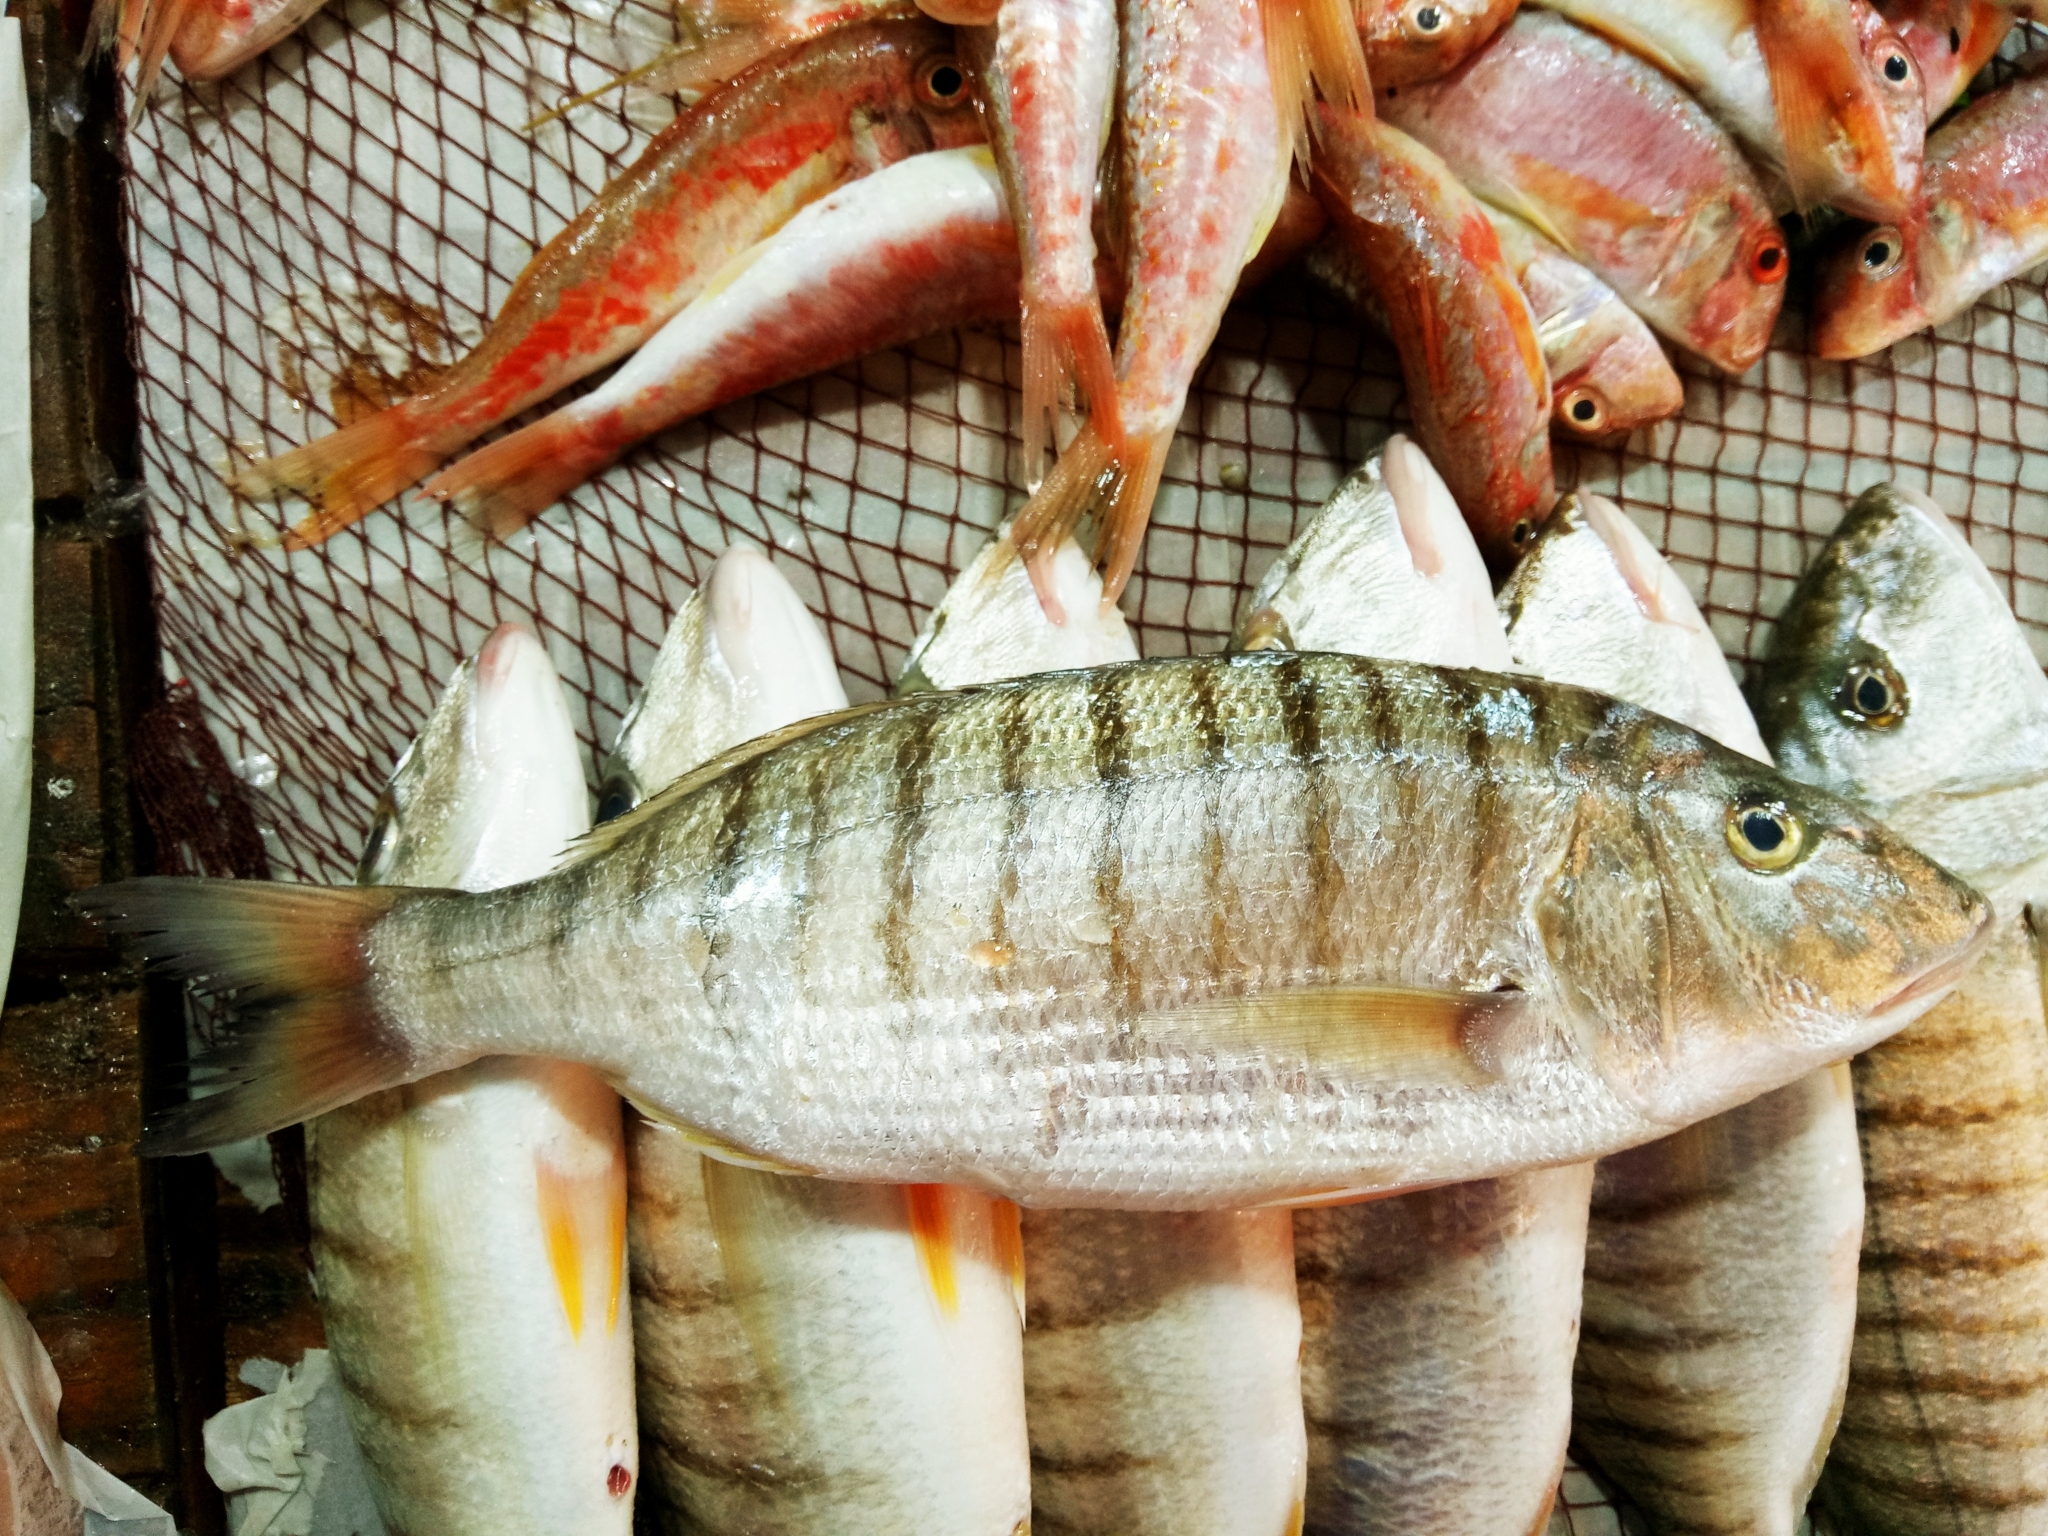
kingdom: Animalia
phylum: Chordata
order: Perciformes
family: Sparidae
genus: Lithognathus
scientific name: Lithognathus mormyrus
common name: Sand steenbras
